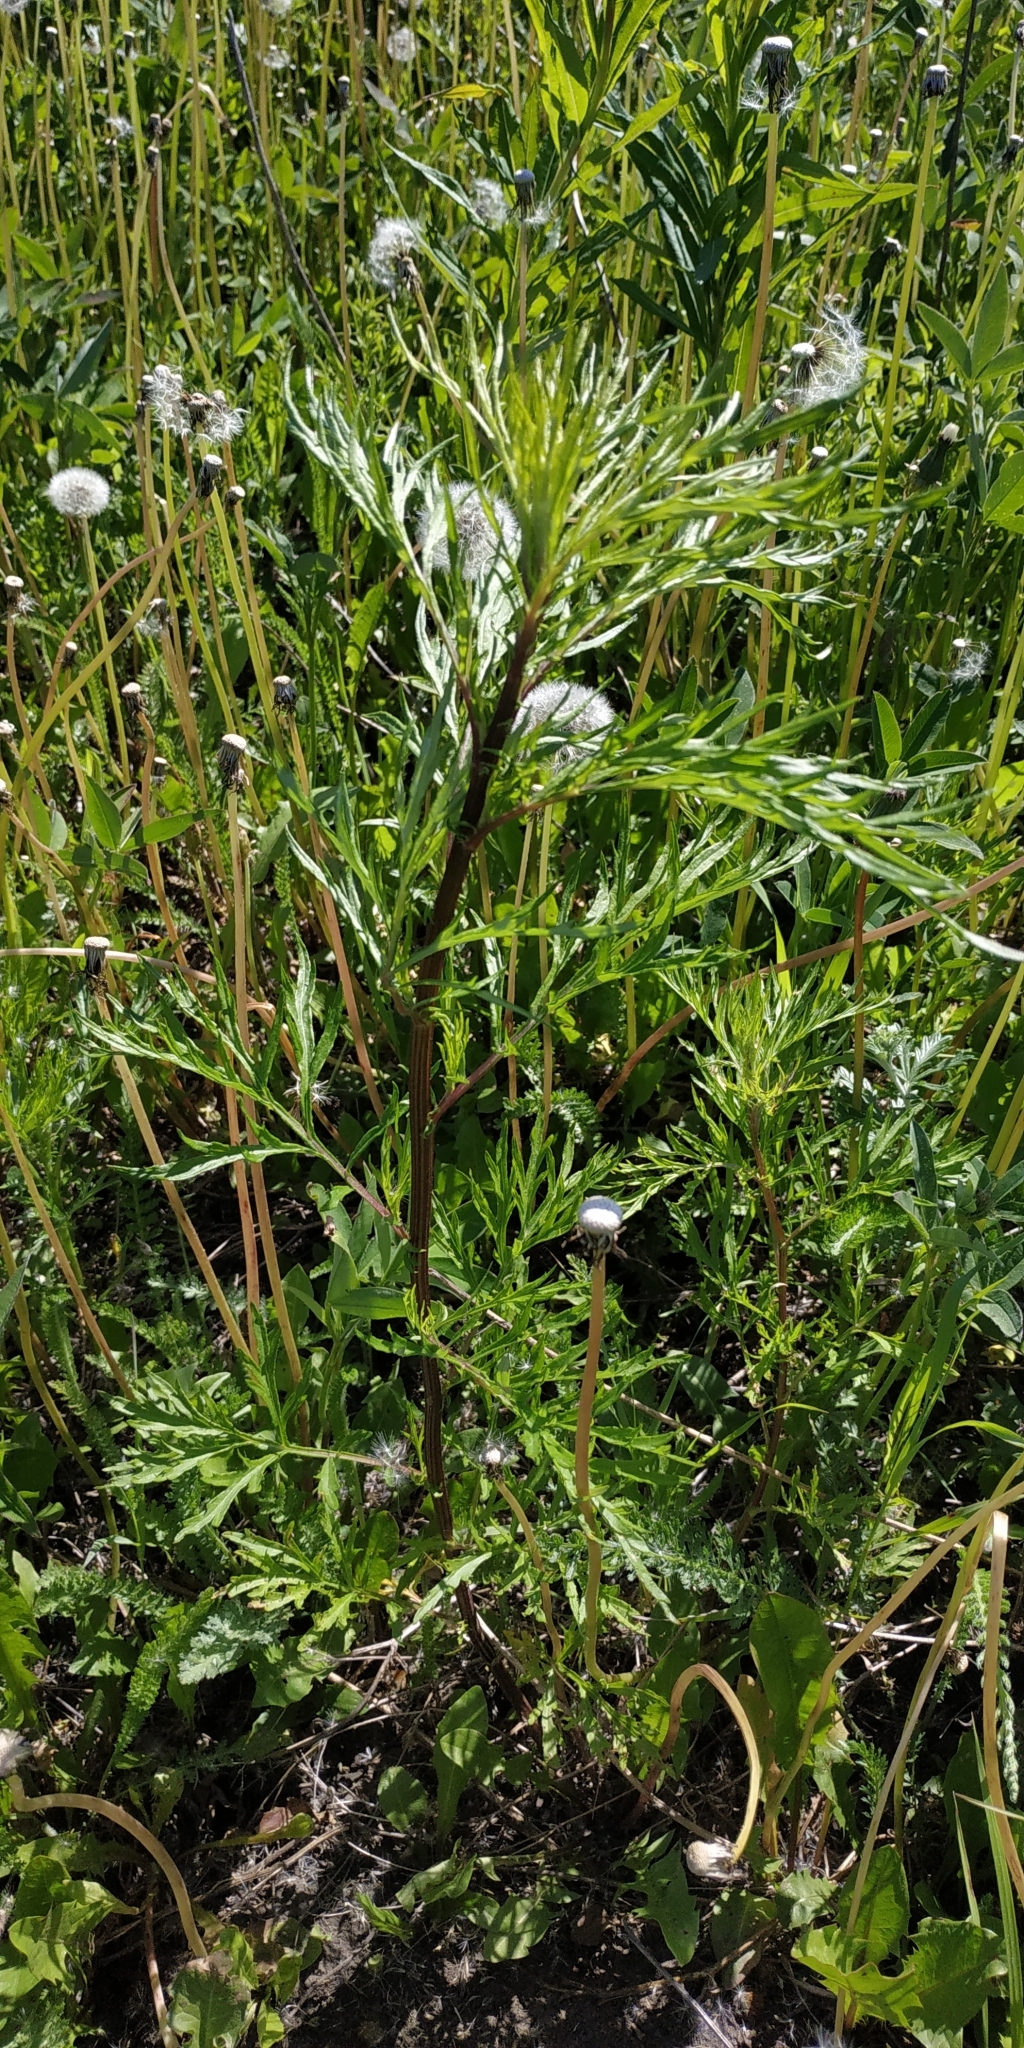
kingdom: Plantae
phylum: Tracheophyta
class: Magnoliopsida
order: Asterales
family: Asteraceae
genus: Artemisia
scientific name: Artemisia vulgaris
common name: Mugwort
